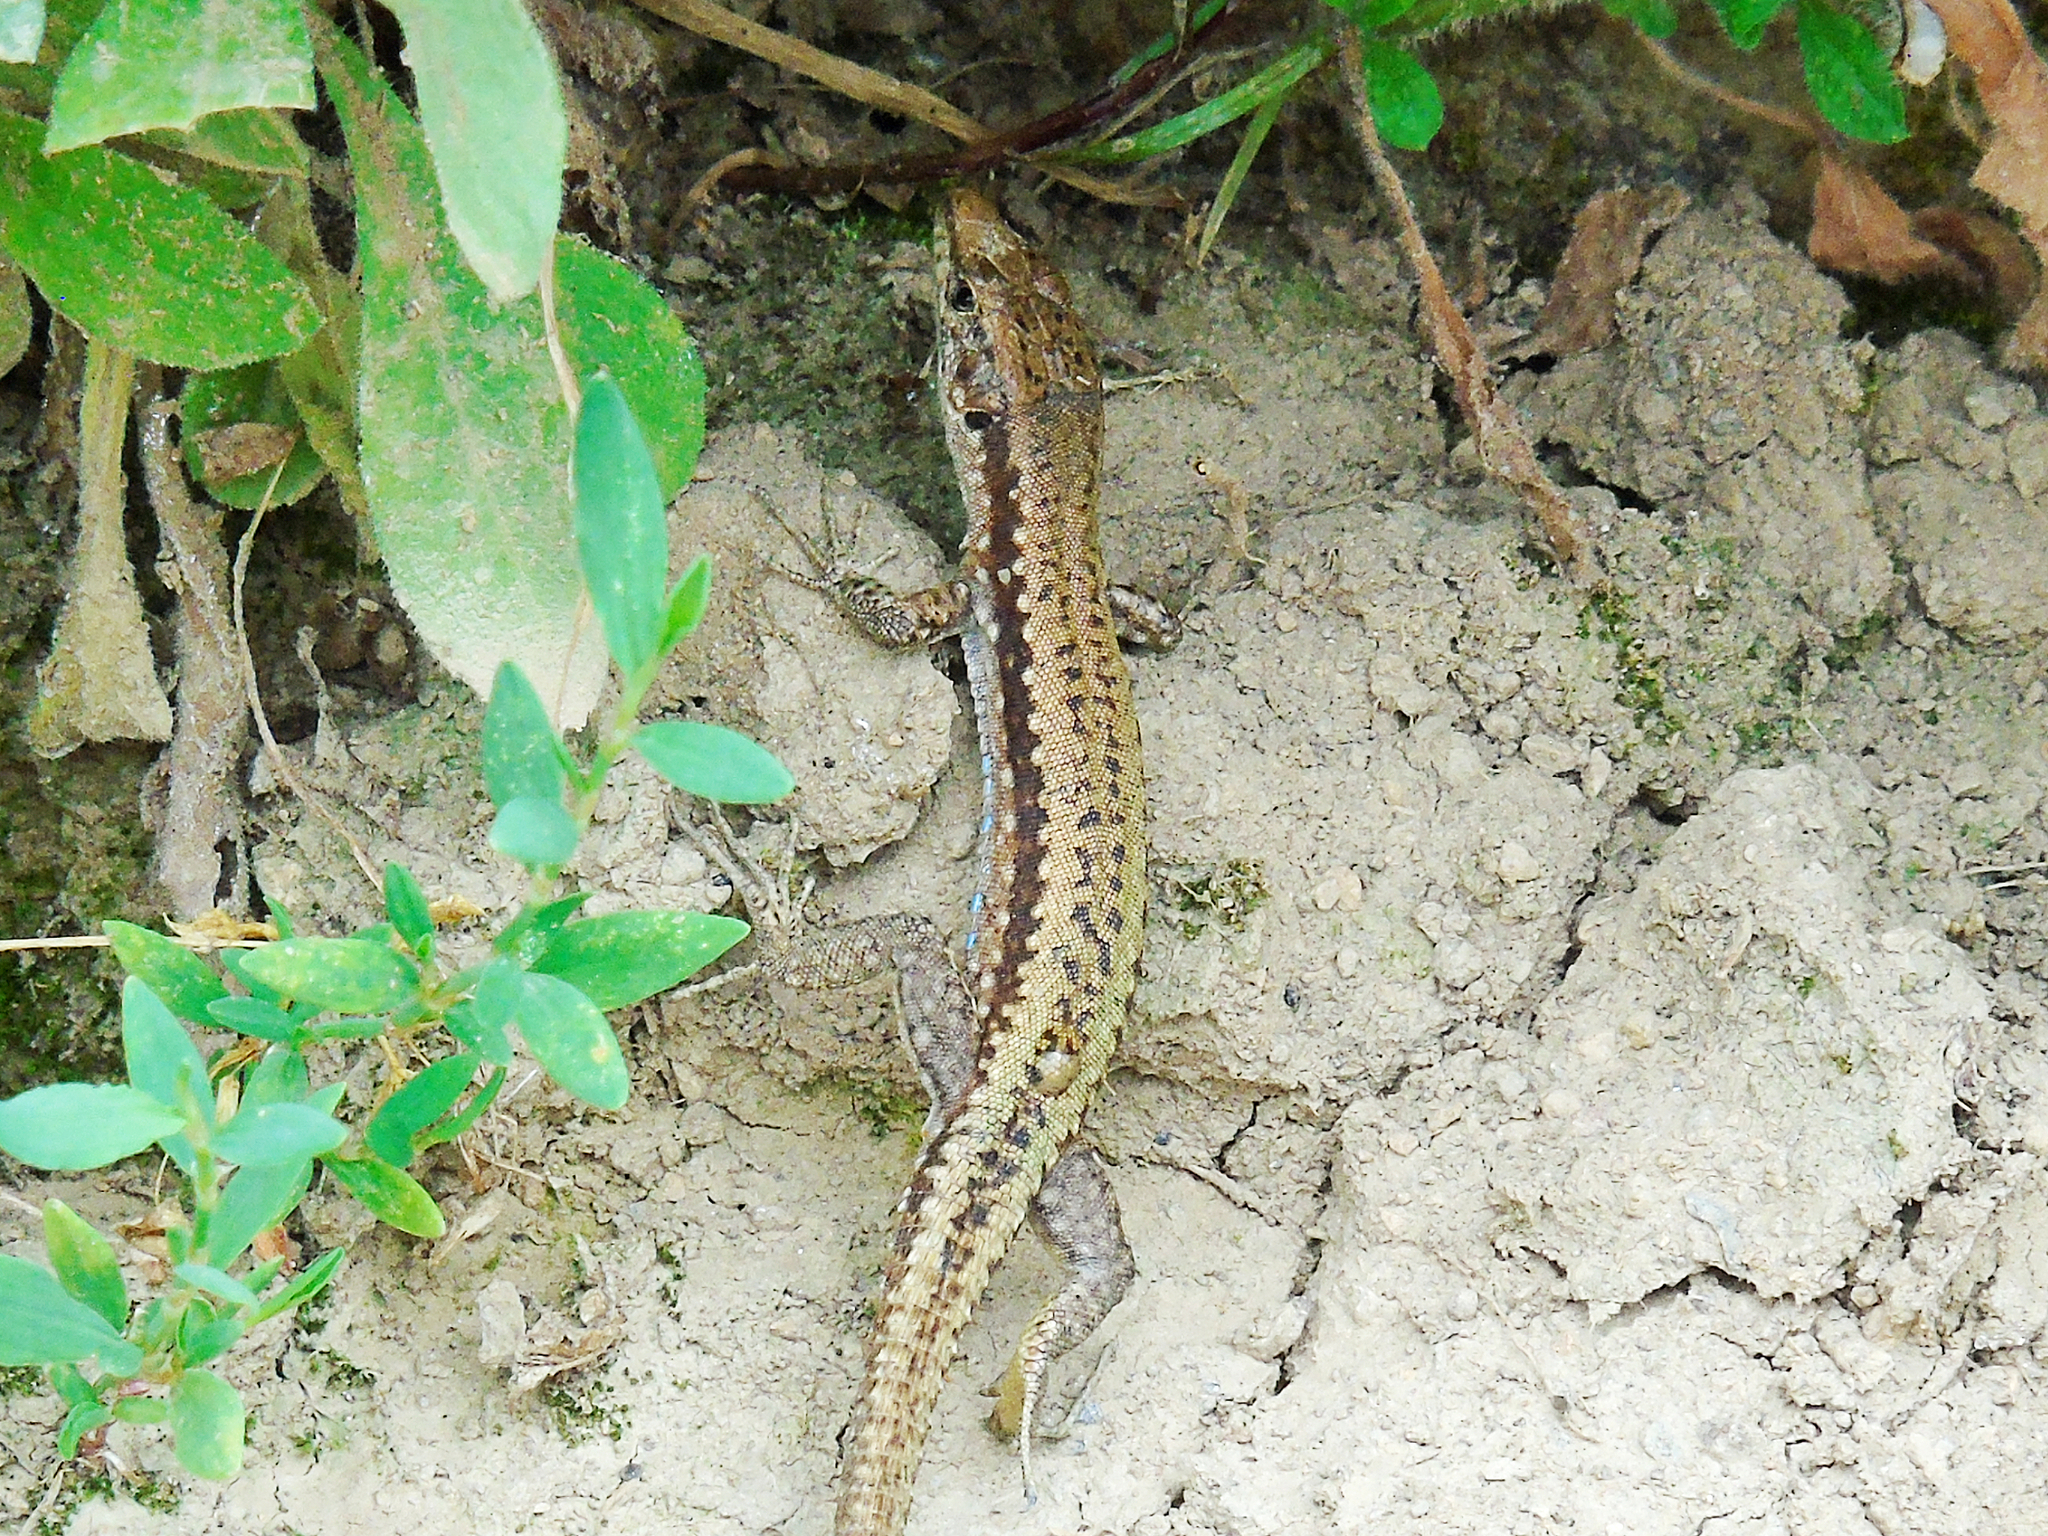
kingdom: Animalia
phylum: Chordata
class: Squamata
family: Lacertidae
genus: Darevskia
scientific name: Darevskia
